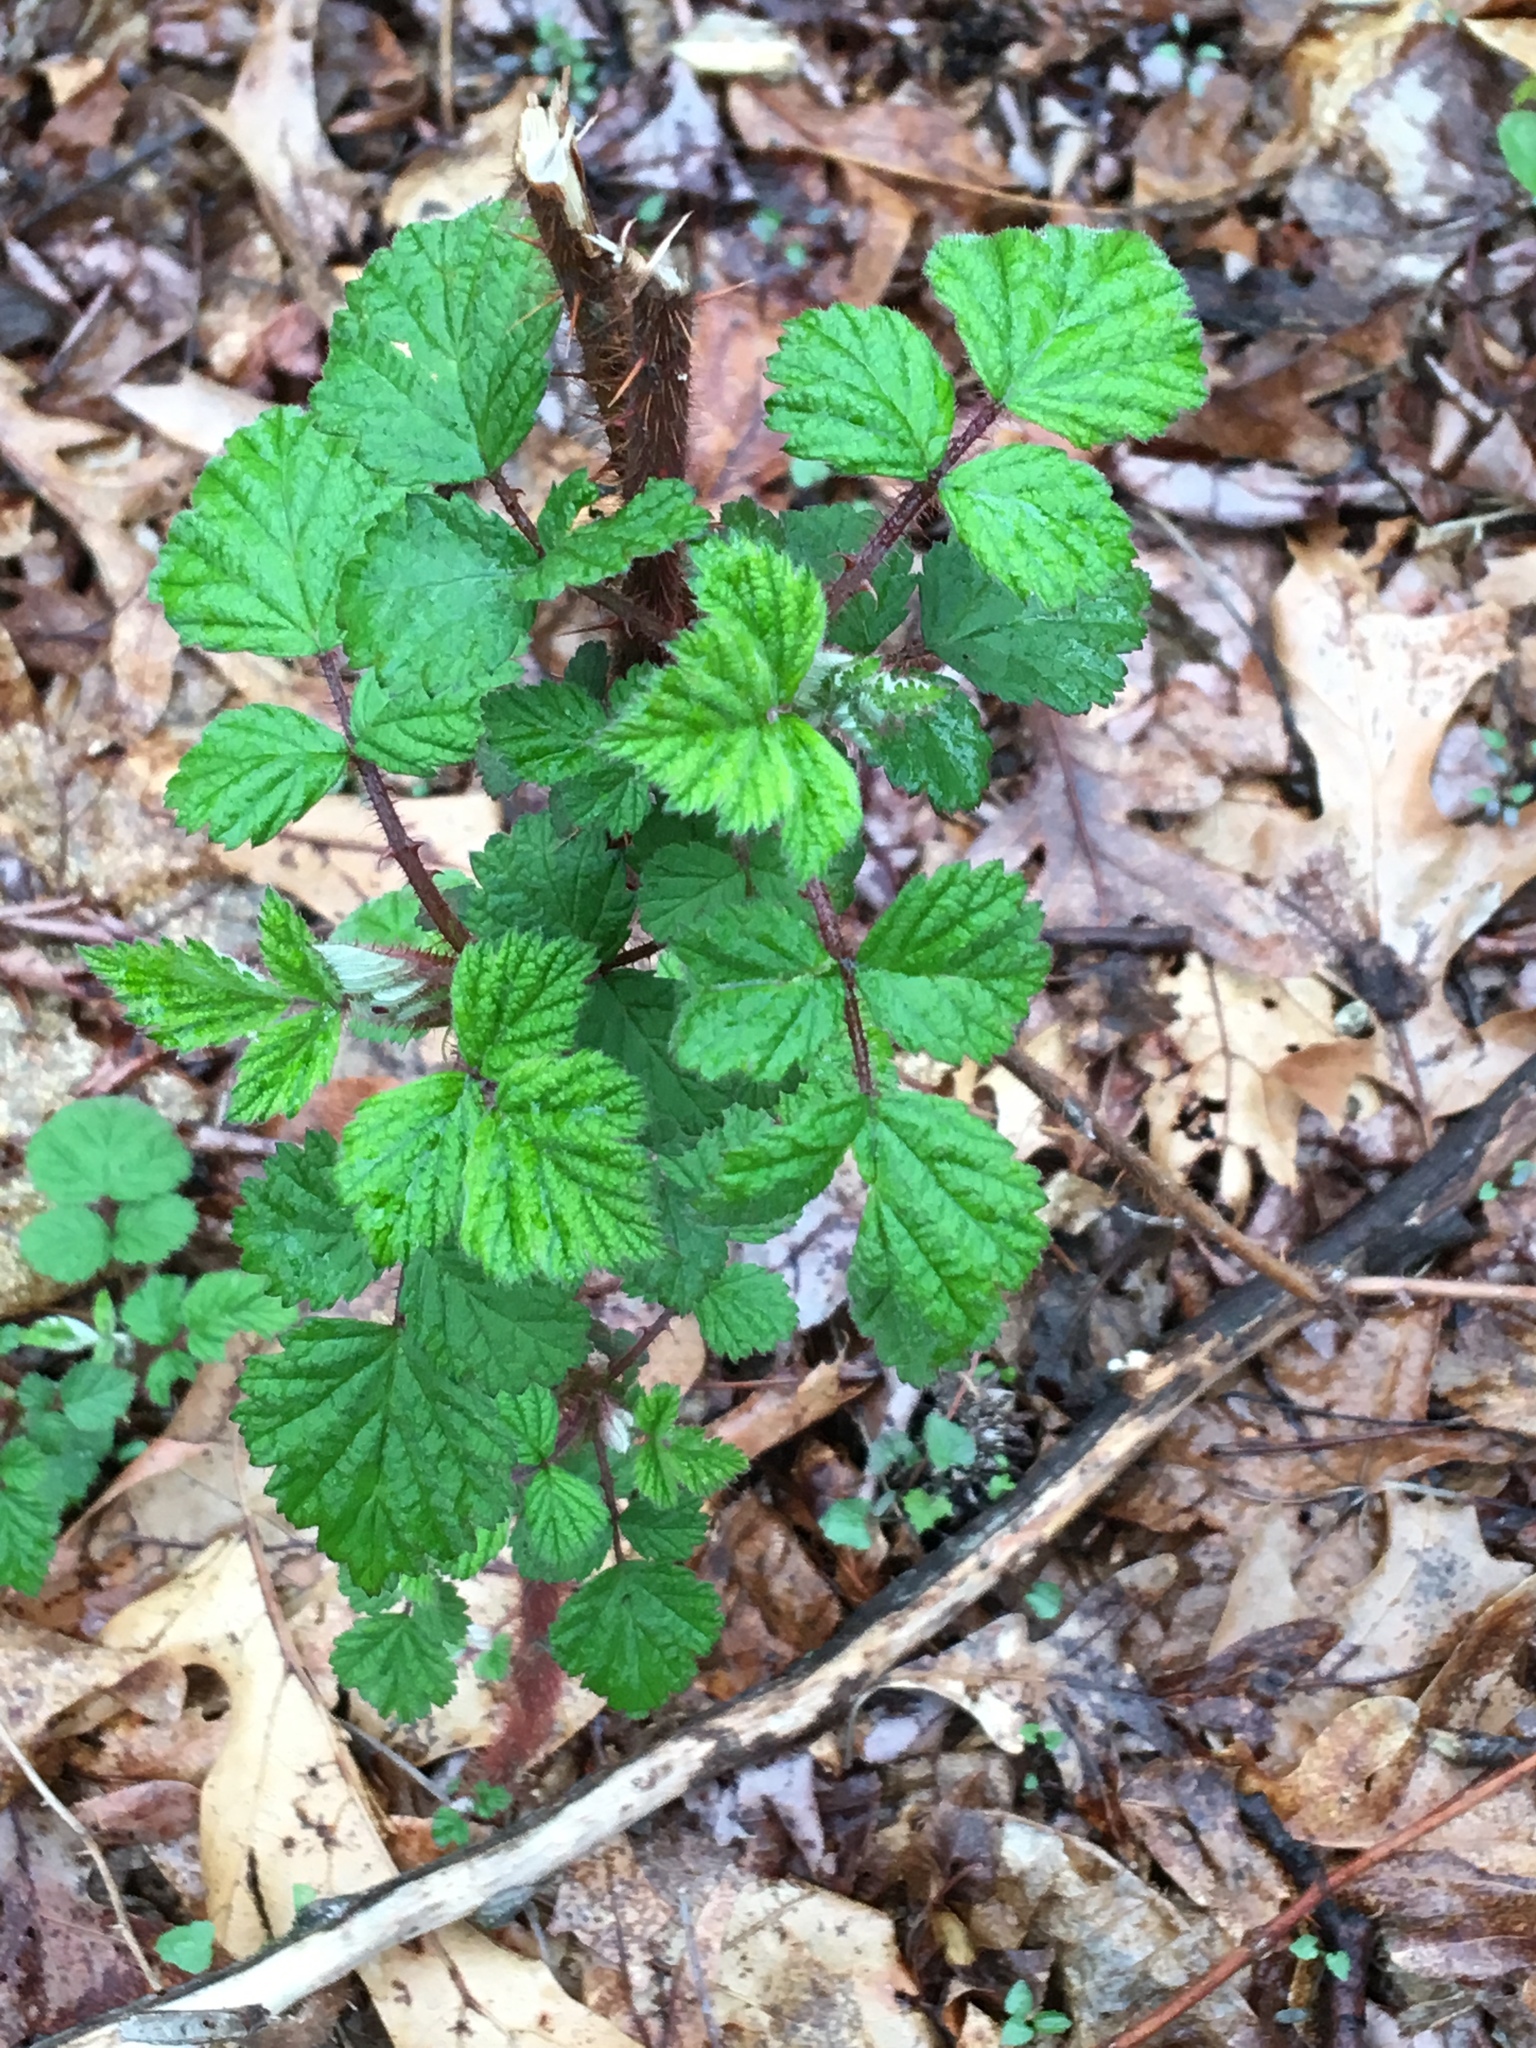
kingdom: Plantae
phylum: Tracheophyta
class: Magnoliopsida
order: Rosales
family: Rosaceae
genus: Rubus
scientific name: Rubus phoenicolasius
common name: Japanese wineberry
